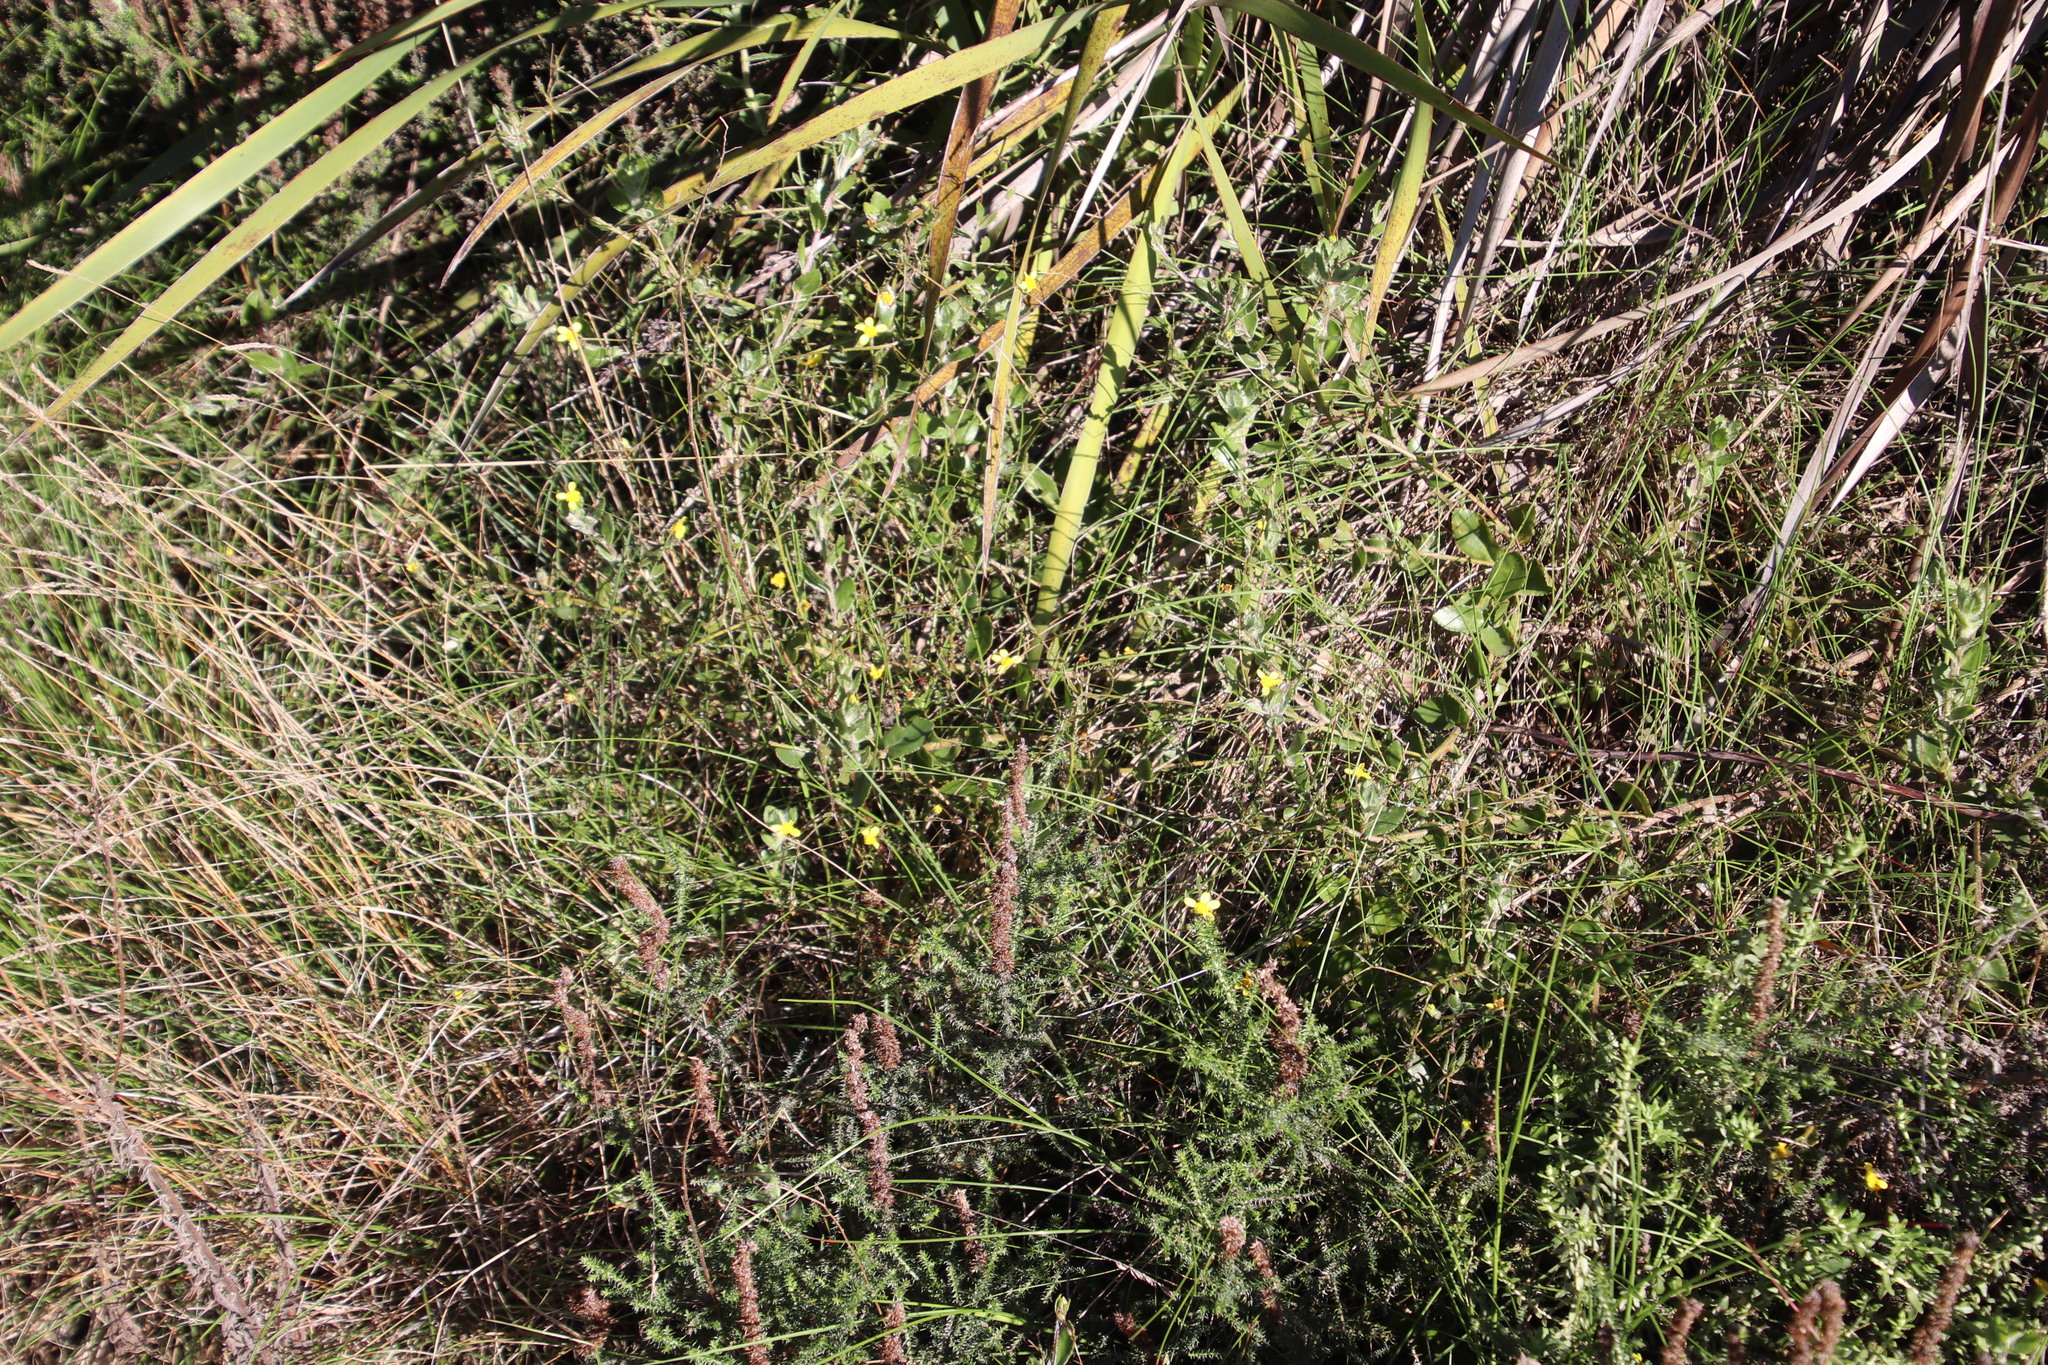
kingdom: Plantae
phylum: Tracheophyta
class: Magnoliopsida
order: Asterales
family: Asteraceae
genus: Osteospermum
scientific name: Osteospermum ciliatum
